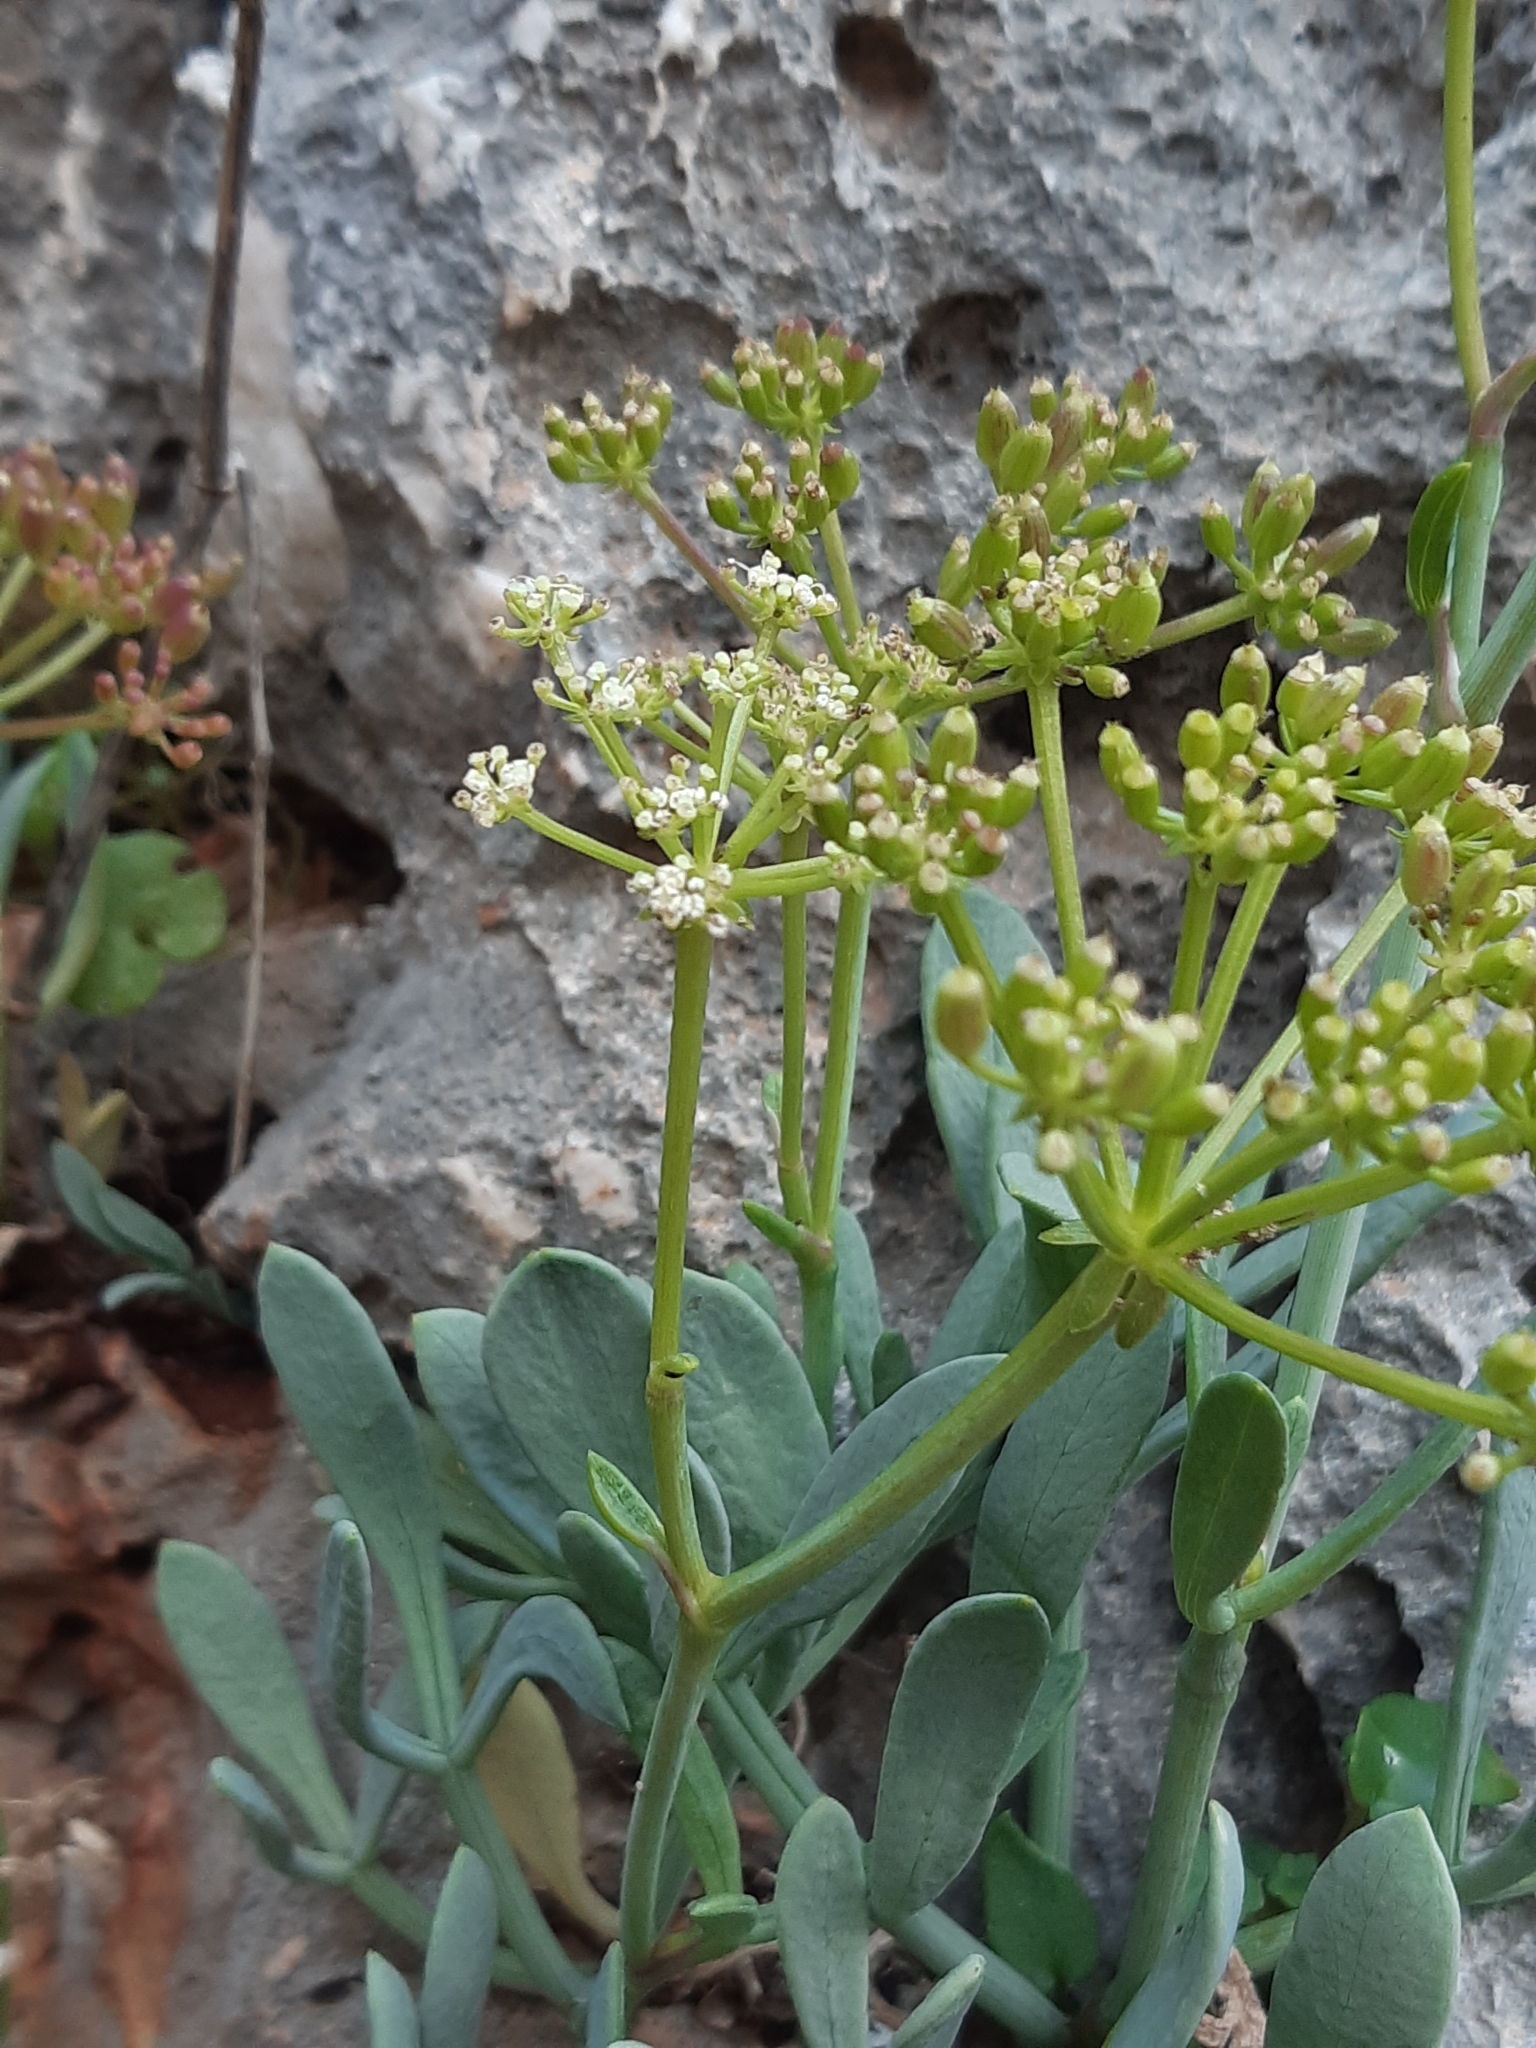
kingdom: Plantae
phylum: Tracheophyta
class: Magnoliopsida
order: Apiales
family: Apiaceae
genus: Crithmum
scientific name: Crithmum maritimum
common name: Rock samphire
